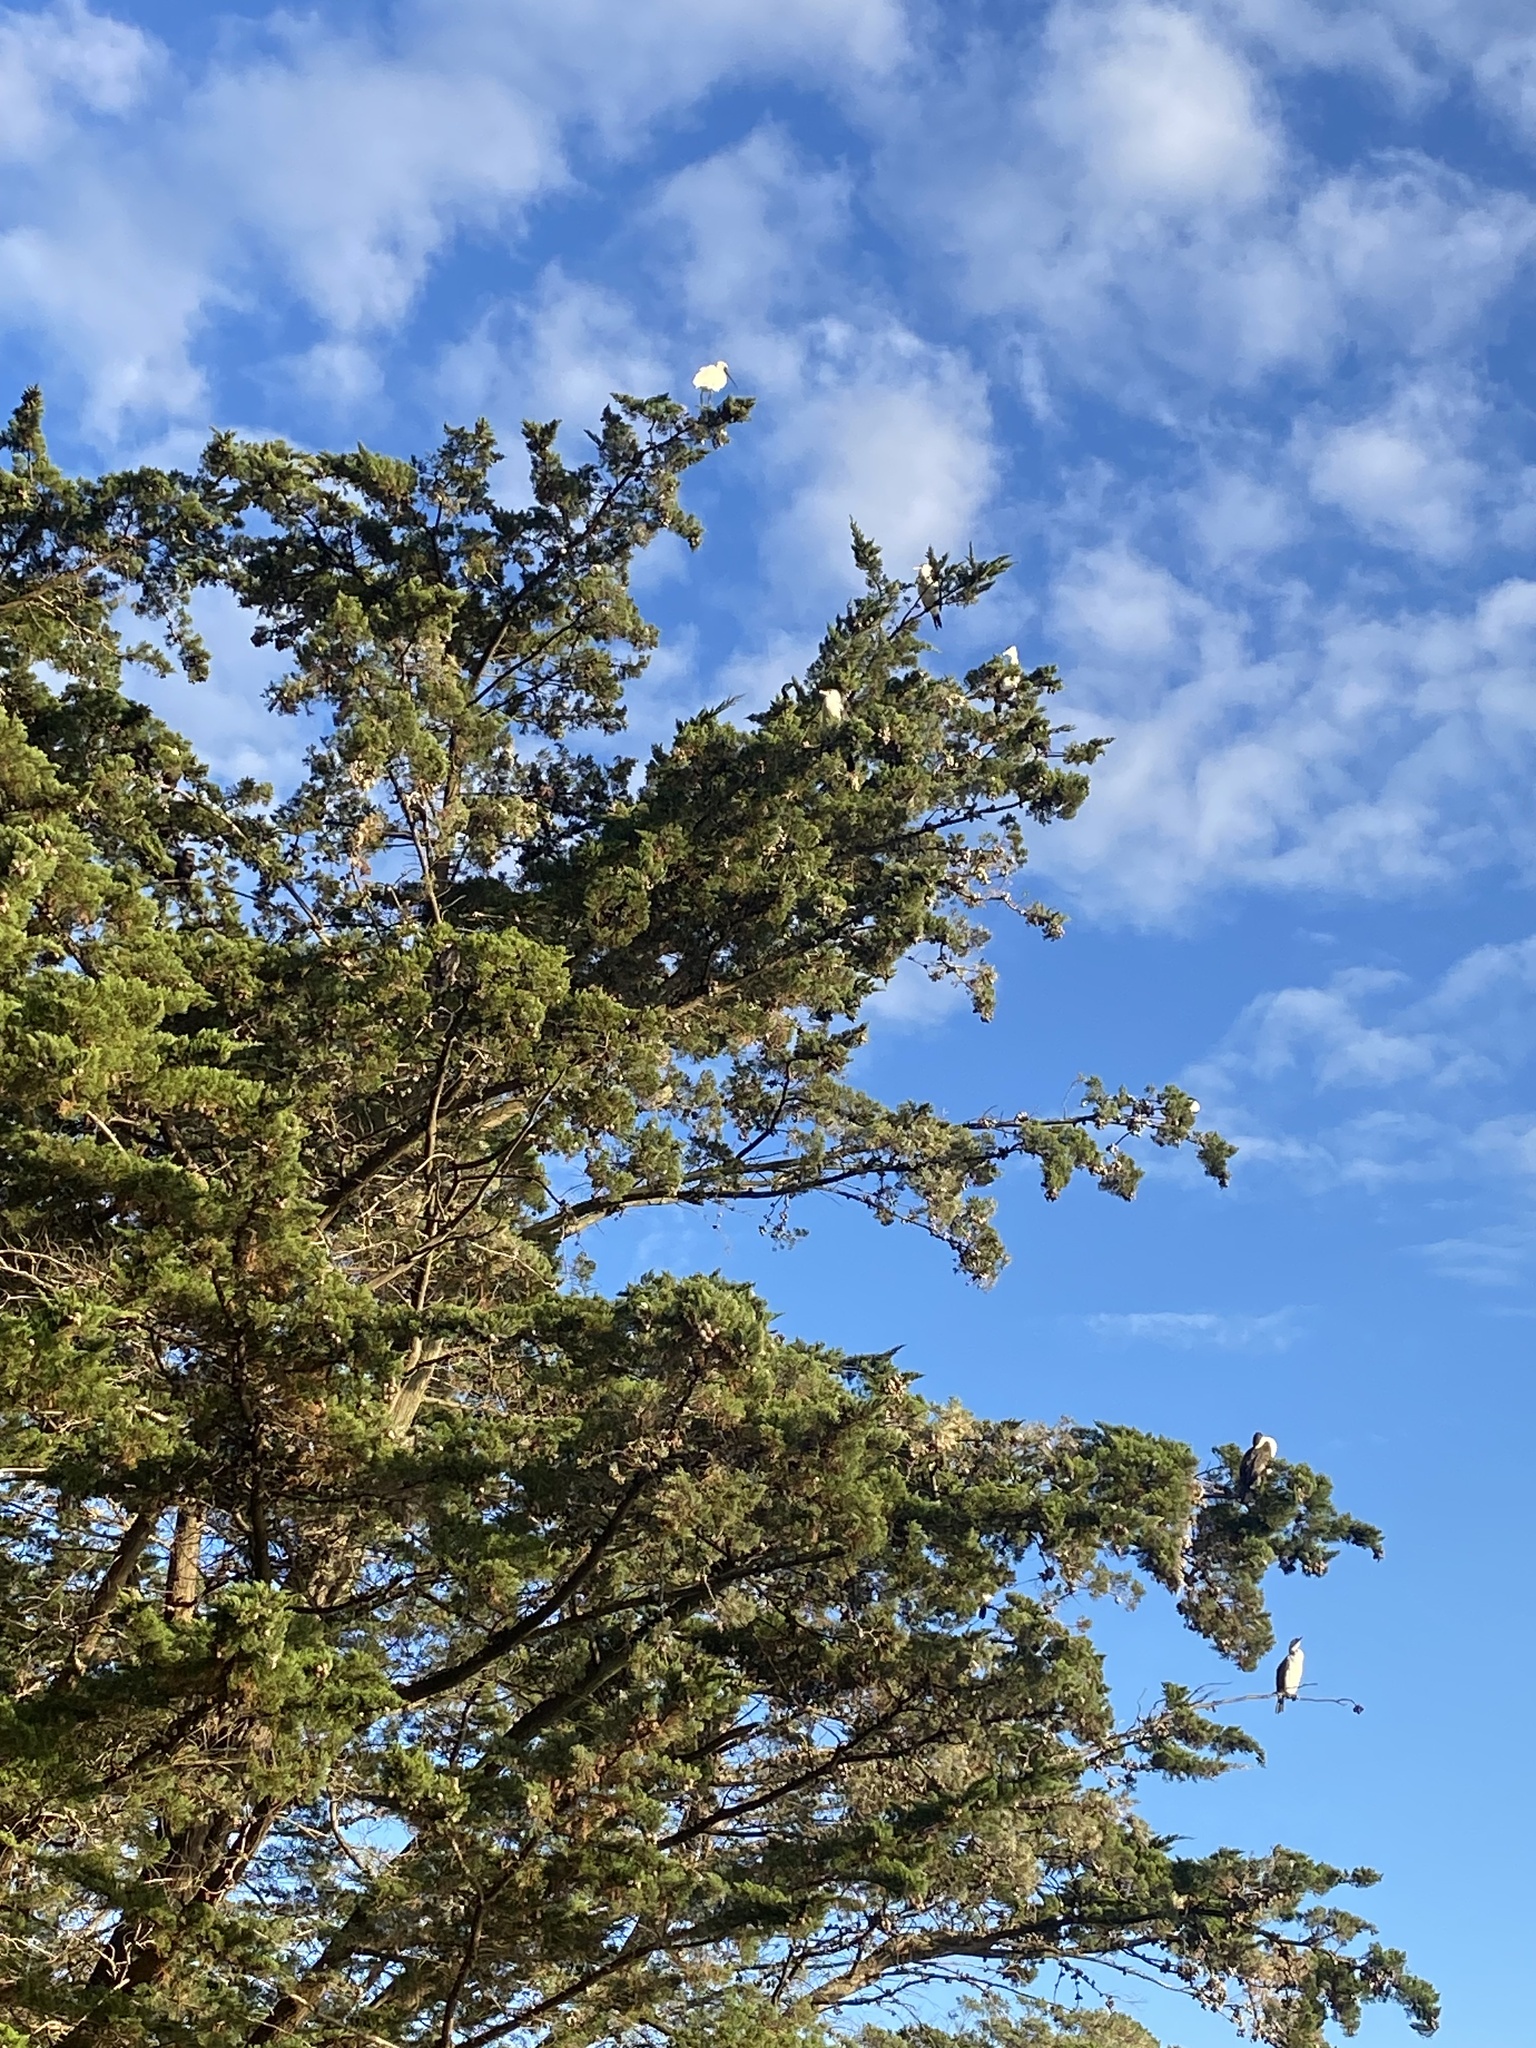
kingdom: Animalia
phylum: Chordata
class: Aves
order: Pelecaniformes
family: Threskiornithidae
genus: Platalea
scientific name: Platalea regia
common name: Royal spoonbill
